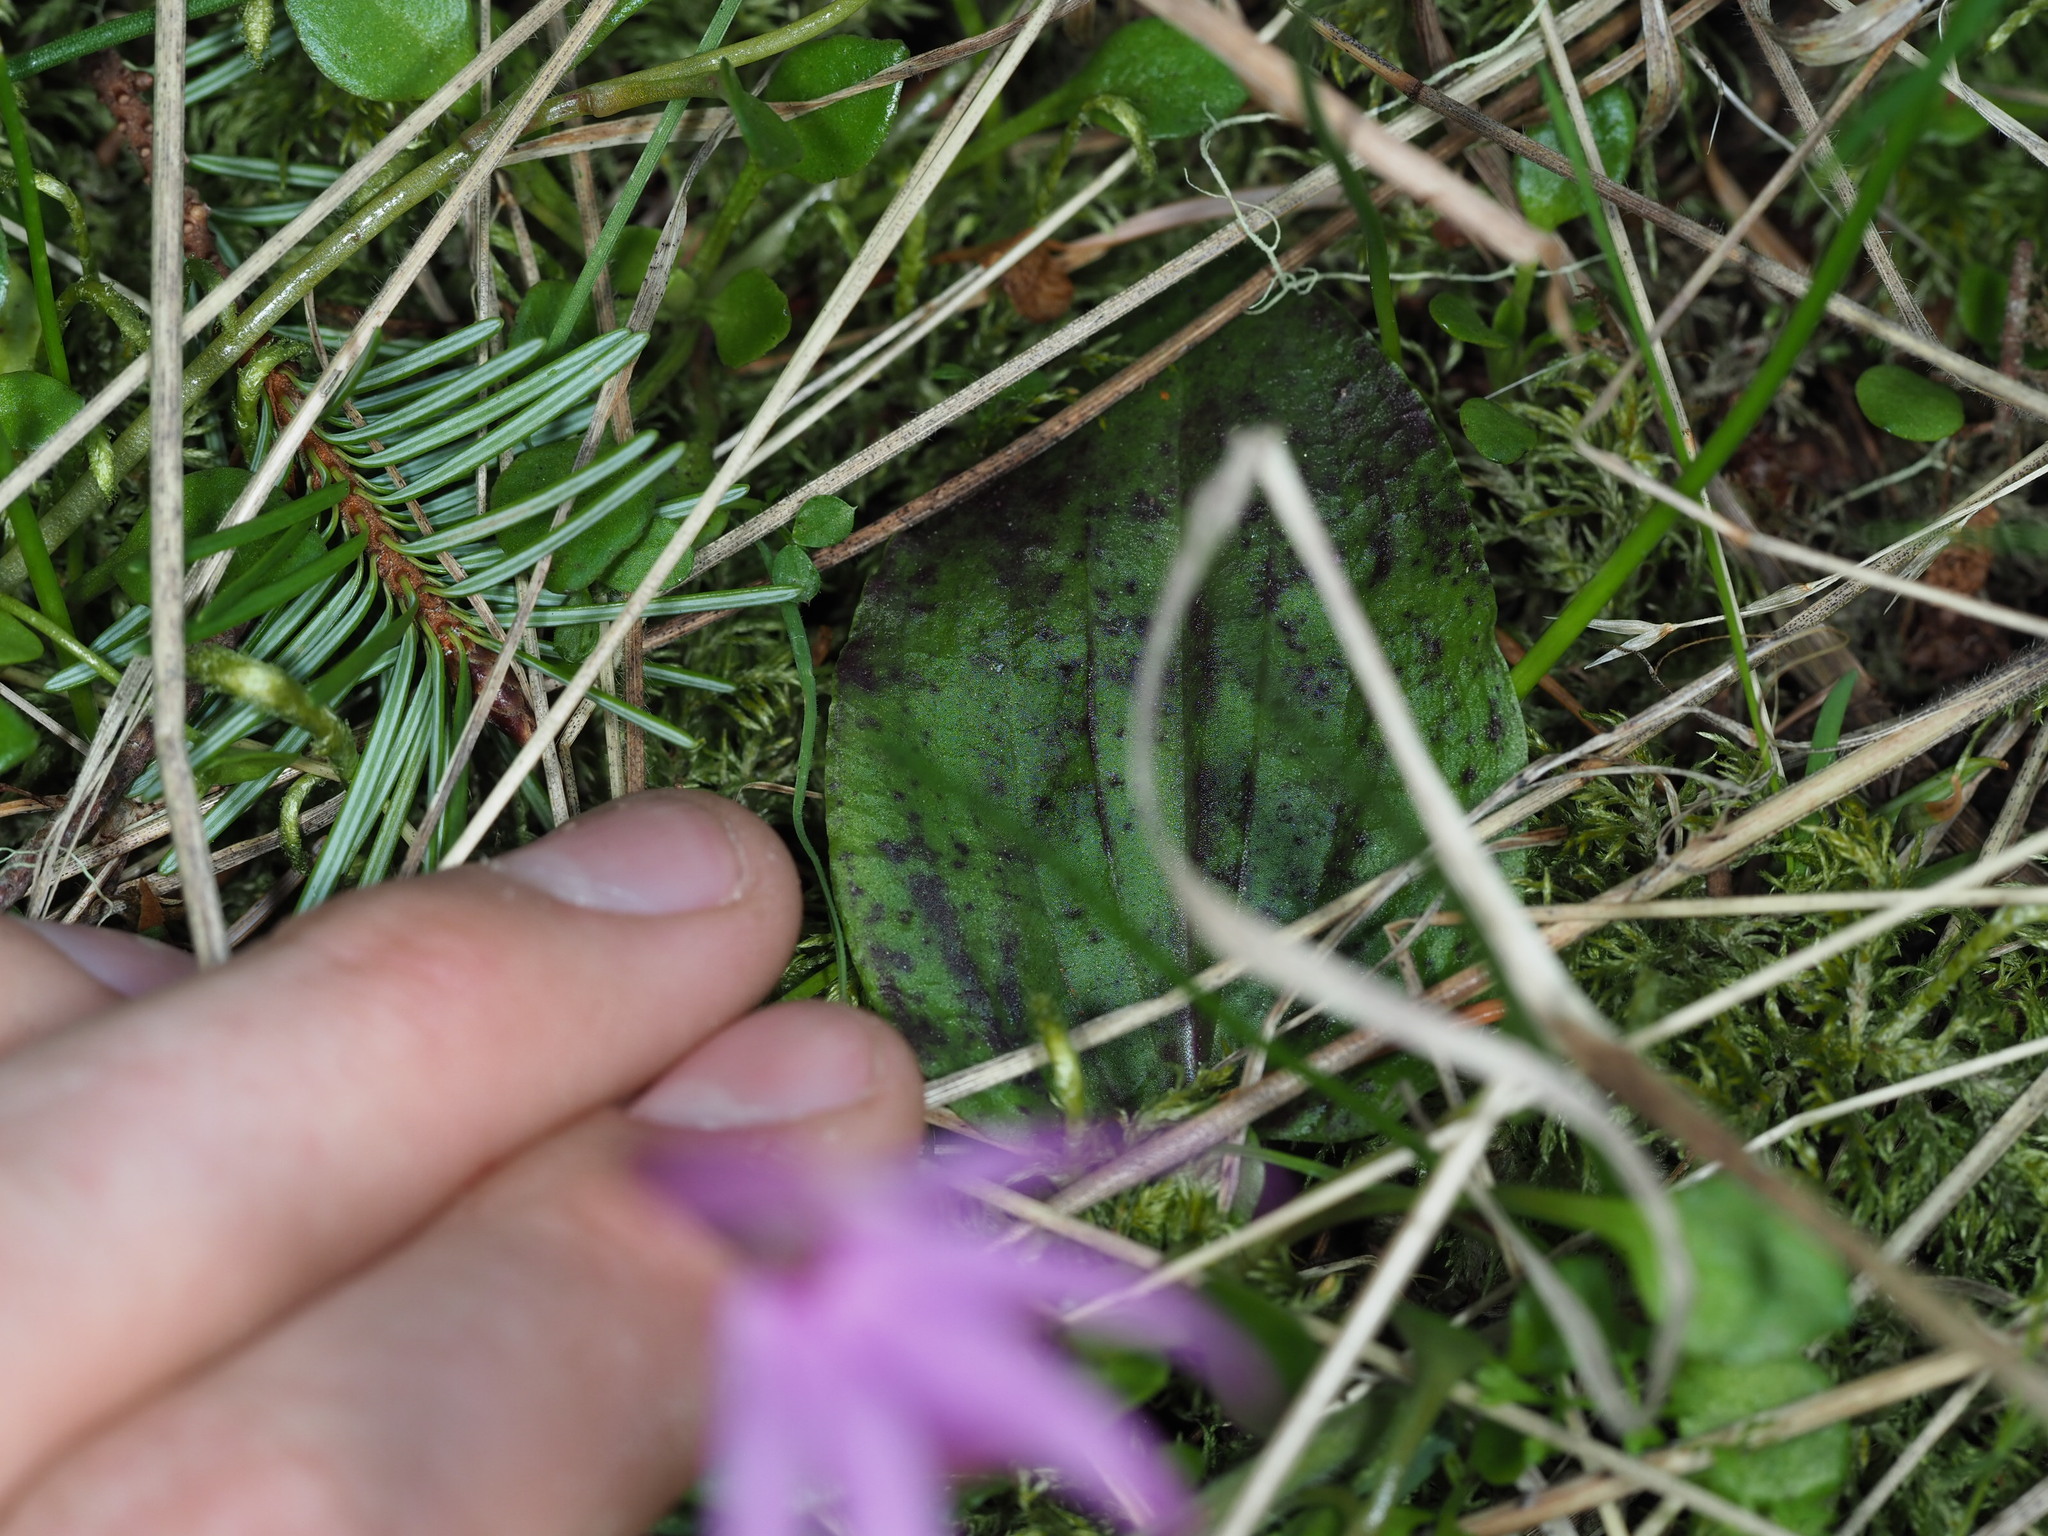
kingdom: Plantae
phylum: Tracheophyta
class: Liliopsida
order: Asparagales
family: Orchidaceae
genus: Calypso
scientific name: Calypso bulbosa
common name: Calypso
